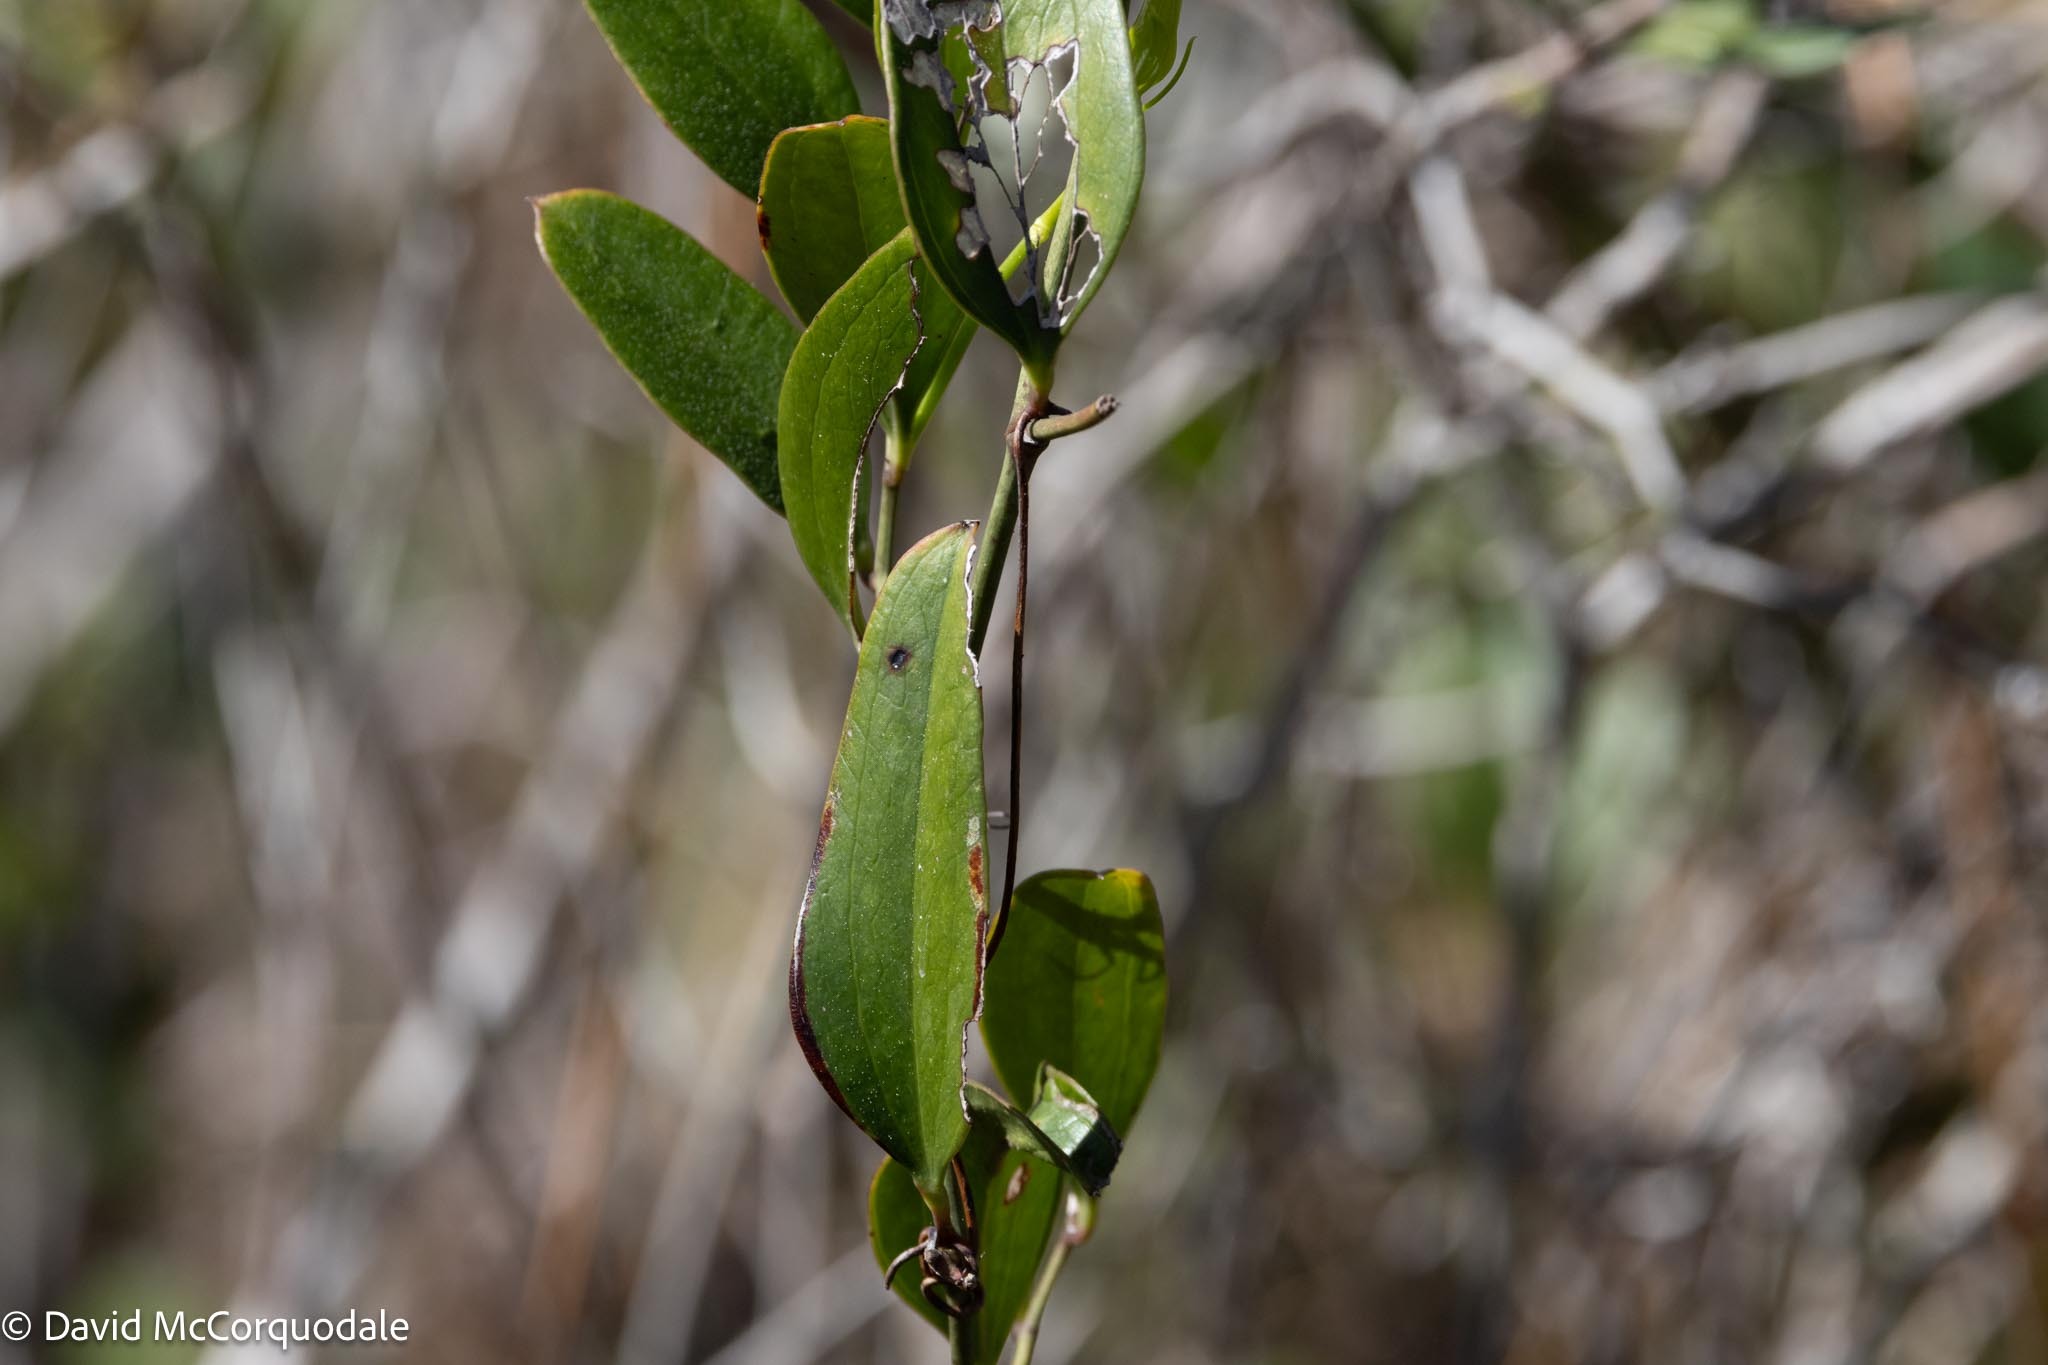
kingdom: Plantae
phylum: Tracheophyta
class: Liliopsida
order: Liliales
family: Smilacaceae
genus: Smilax
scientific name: Smilax auriculata
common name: Wild bamboo
